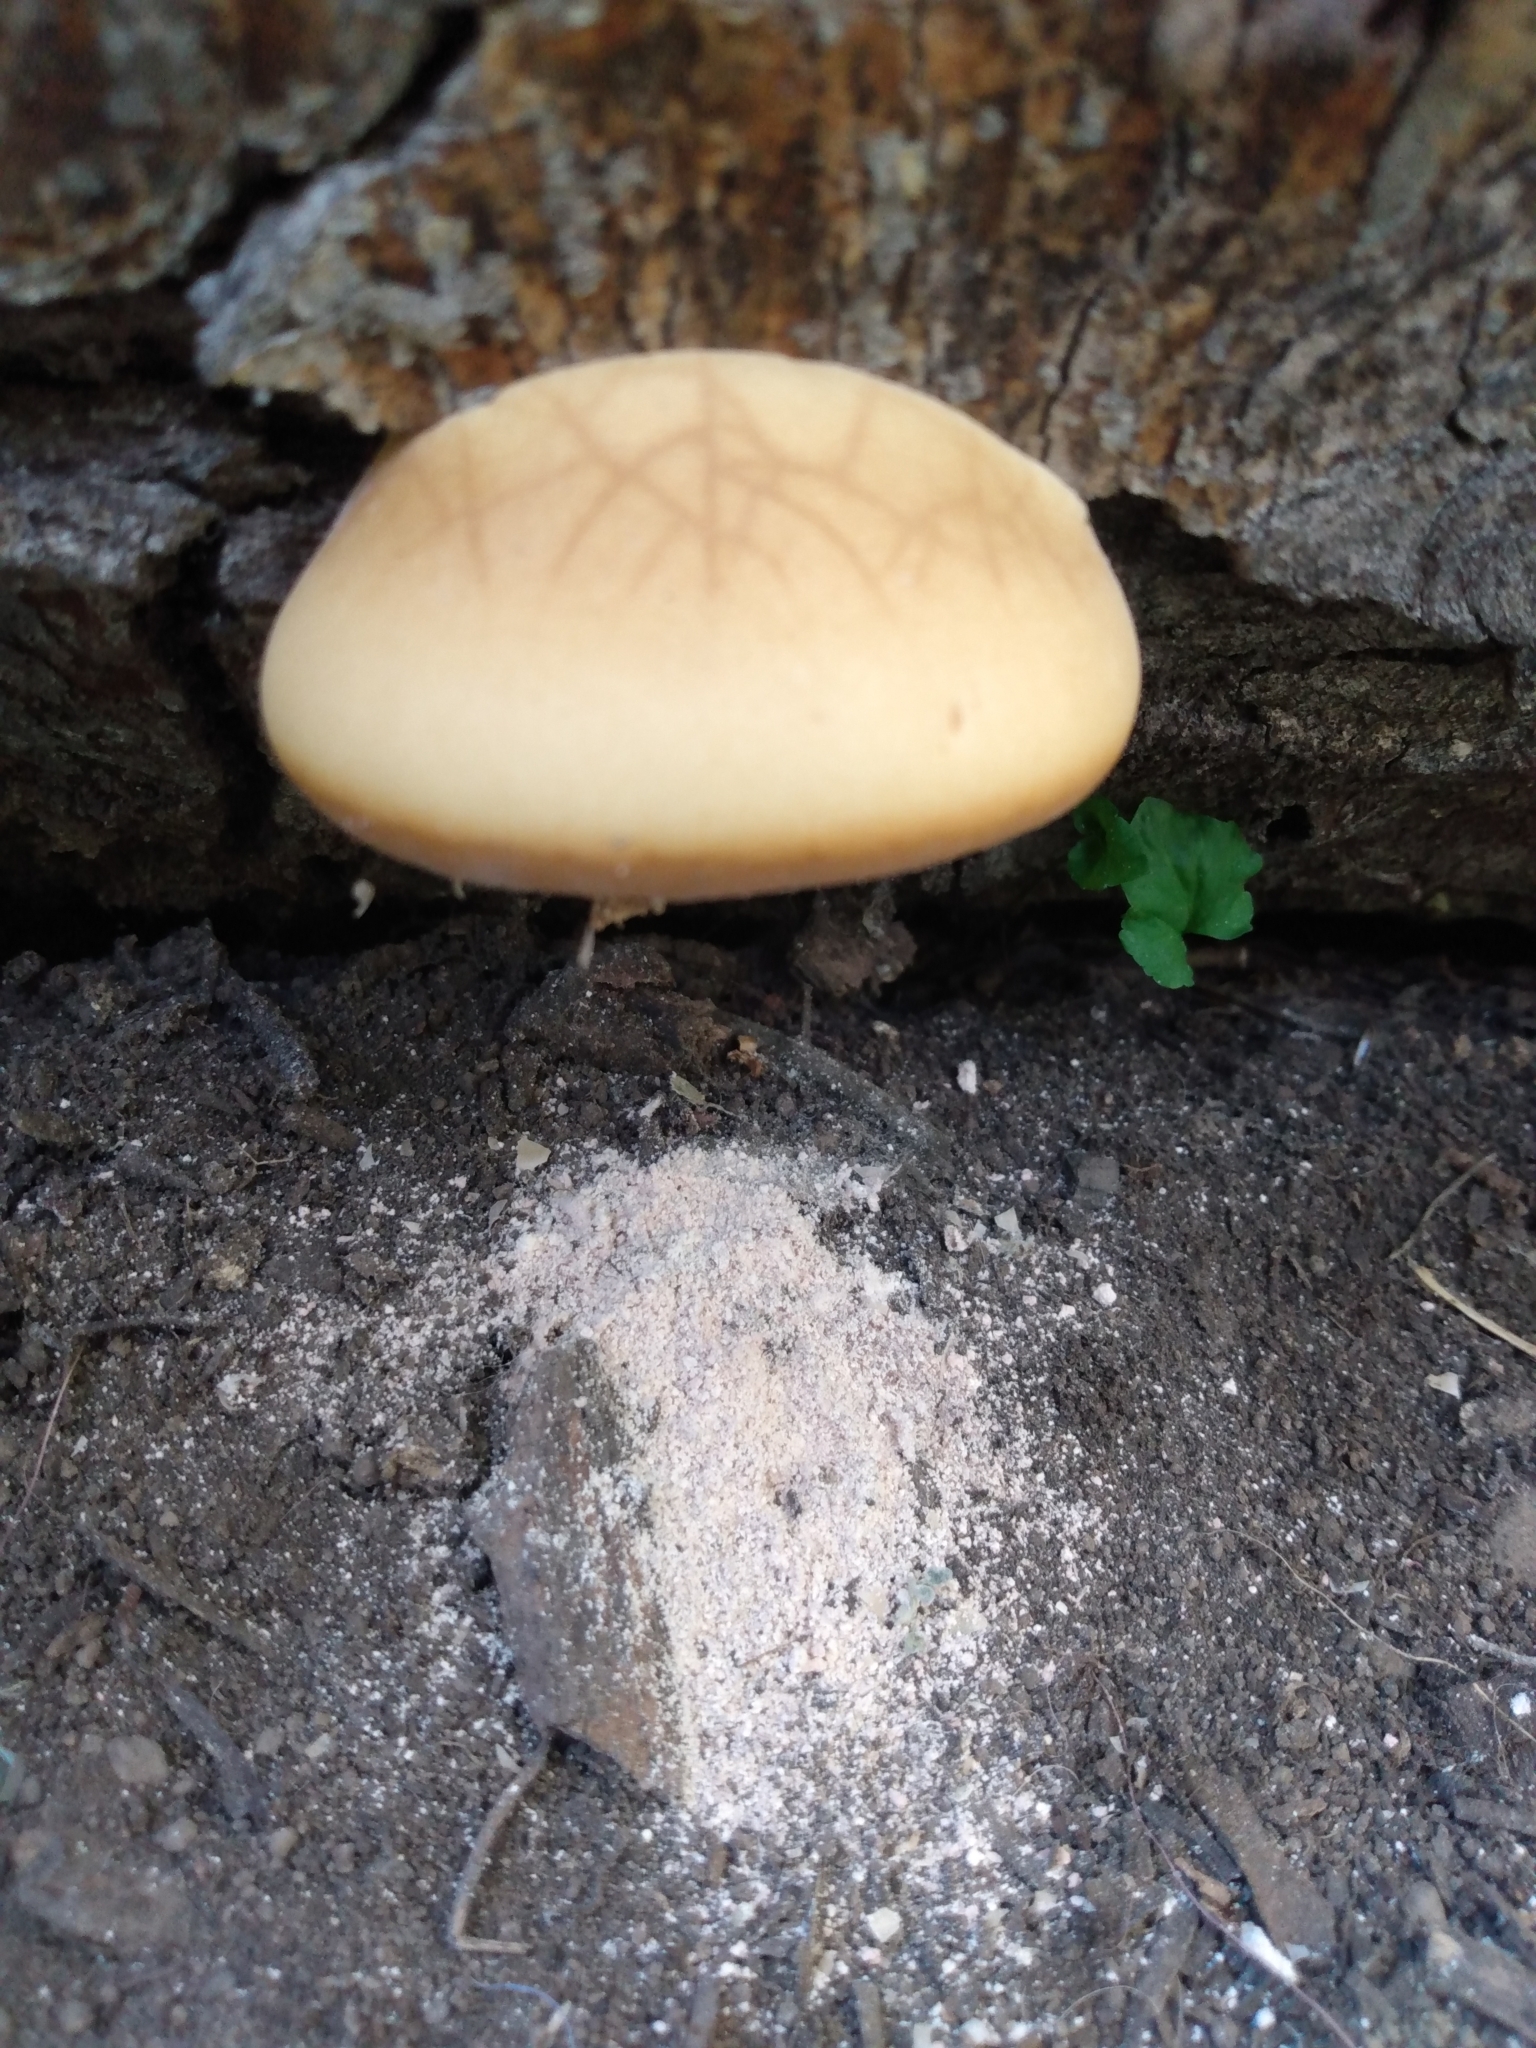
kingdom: Fungi
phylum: Basidiomycota
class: Agaricomycetes
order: Polyporales
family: Polyporaceae
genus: Cryptoporus
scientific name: Cryptoporus volvatus
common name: Veiled polypore
